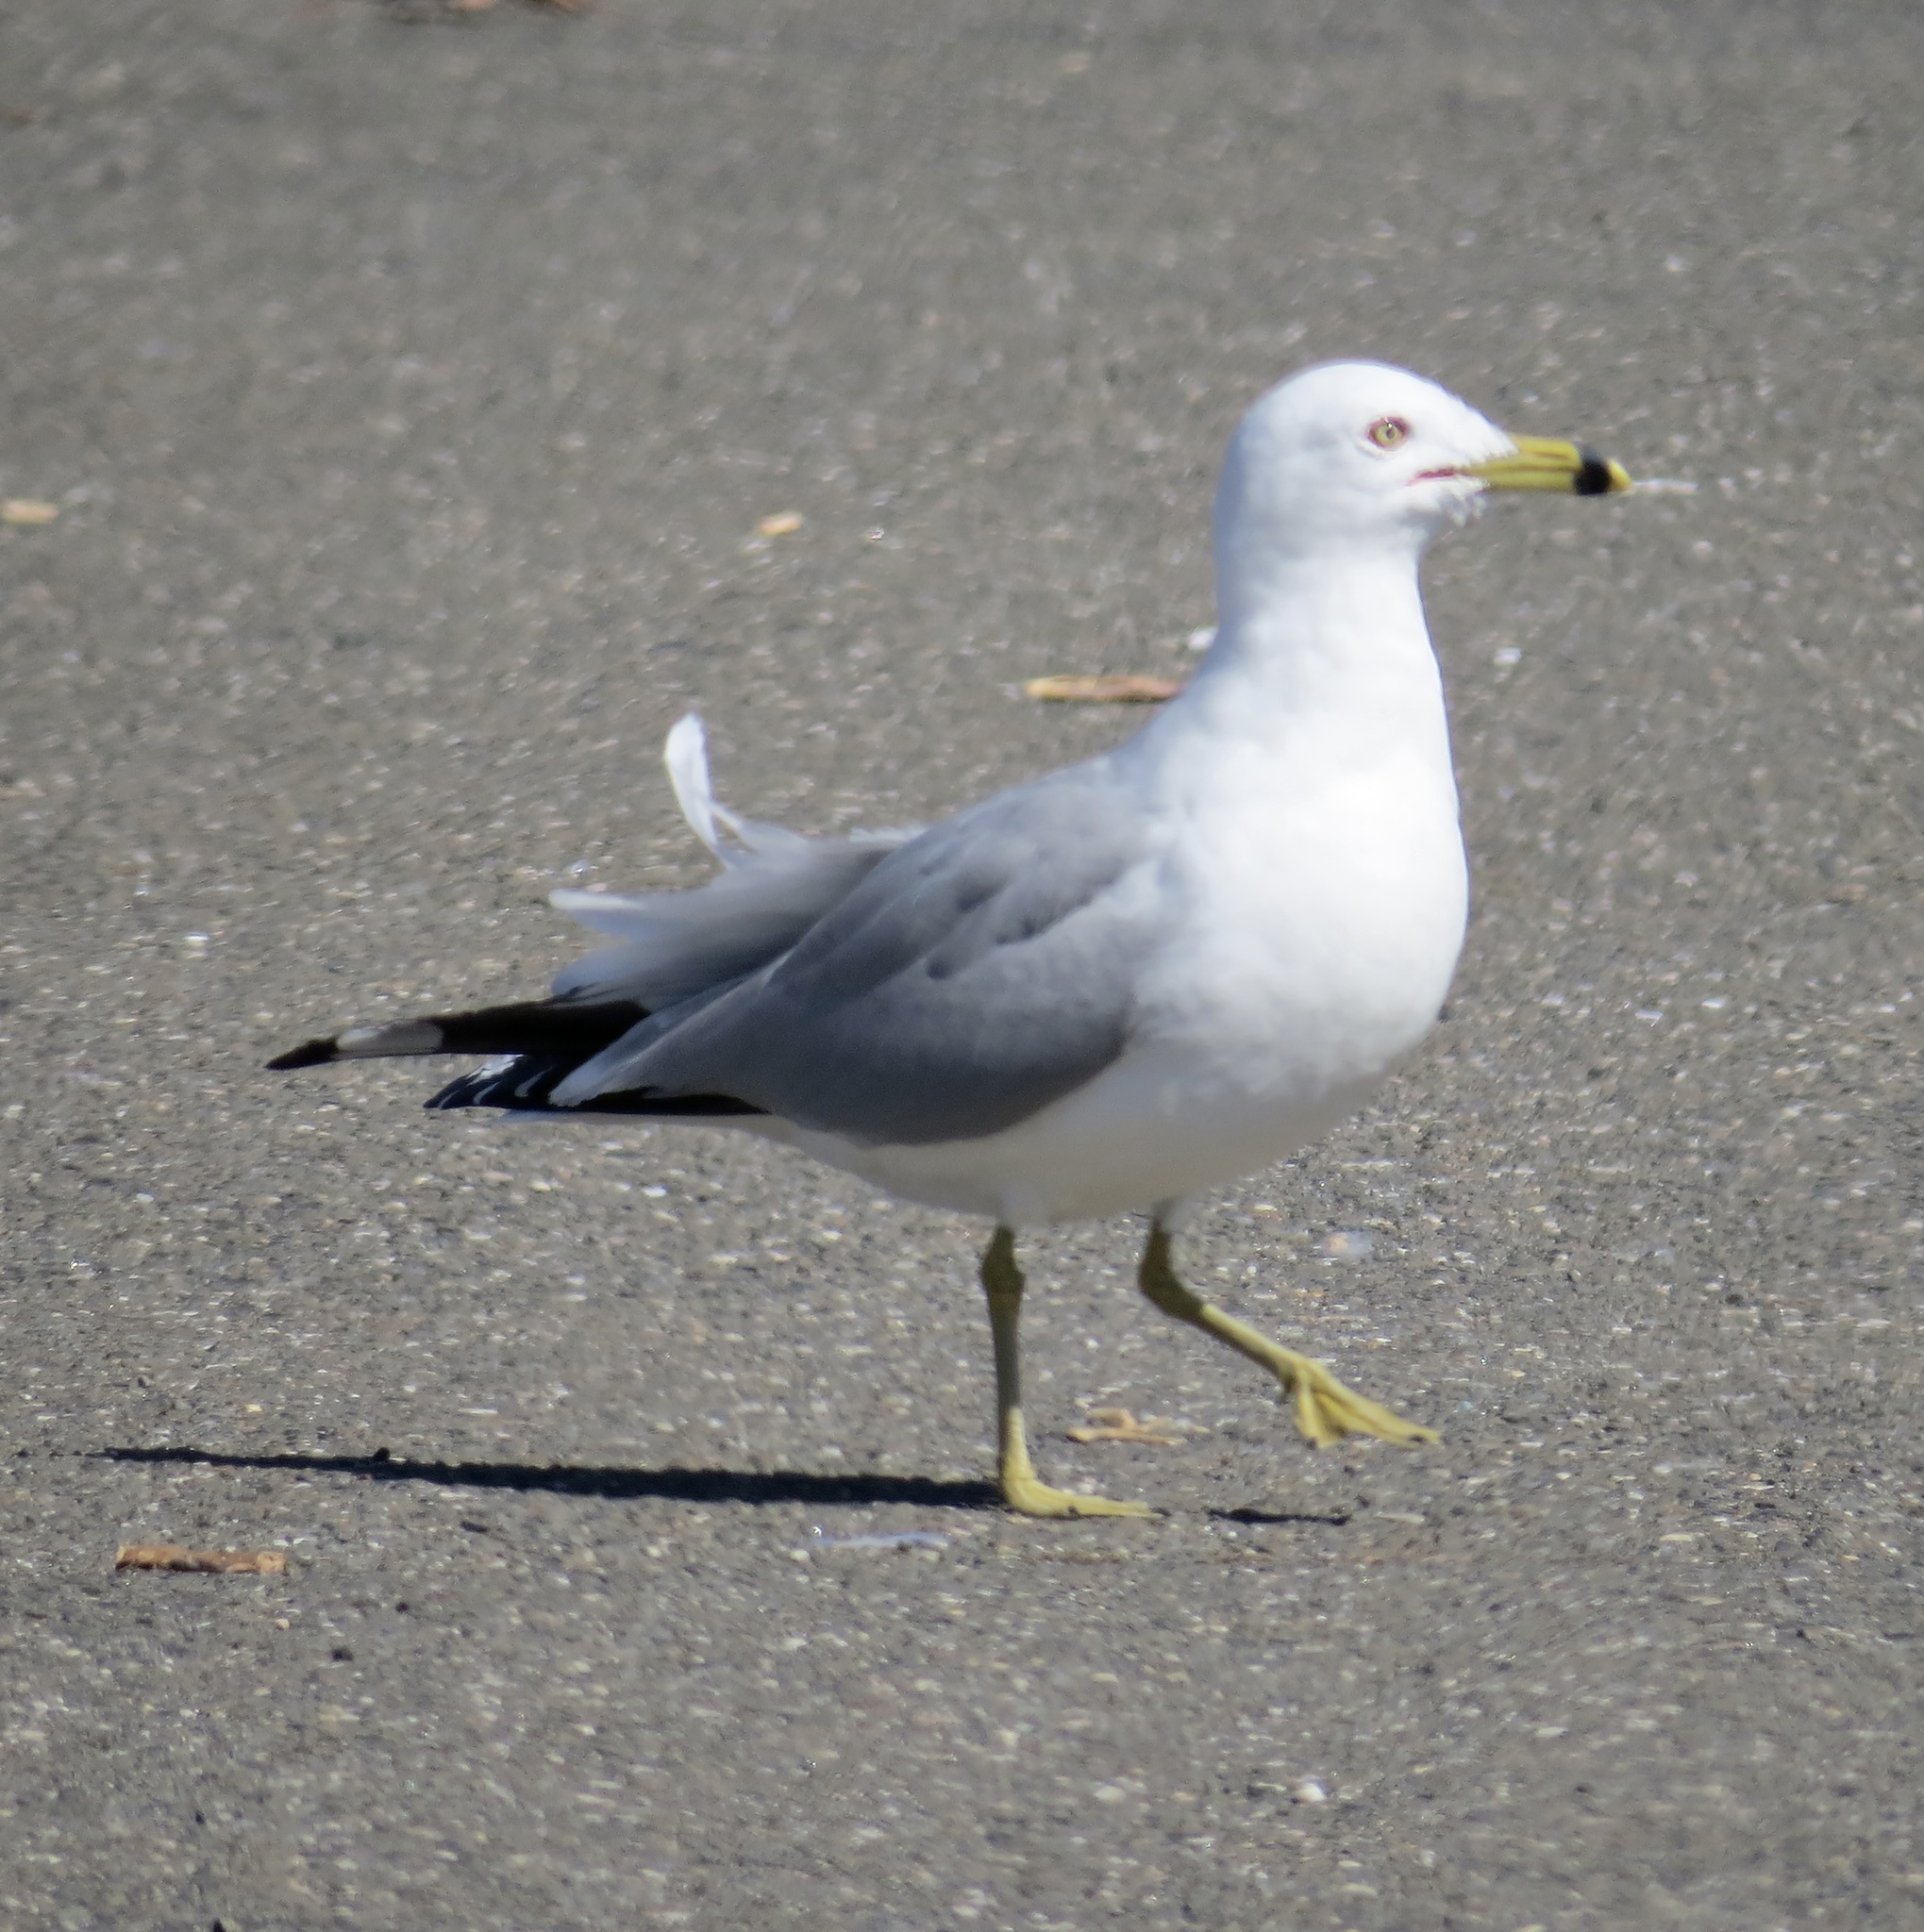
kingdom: Animalia
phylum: Chordata
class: Aves
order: Charadriiformes
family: Laridae
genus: Larus
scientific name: Larus delawarensis
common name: Ring-billed gull
